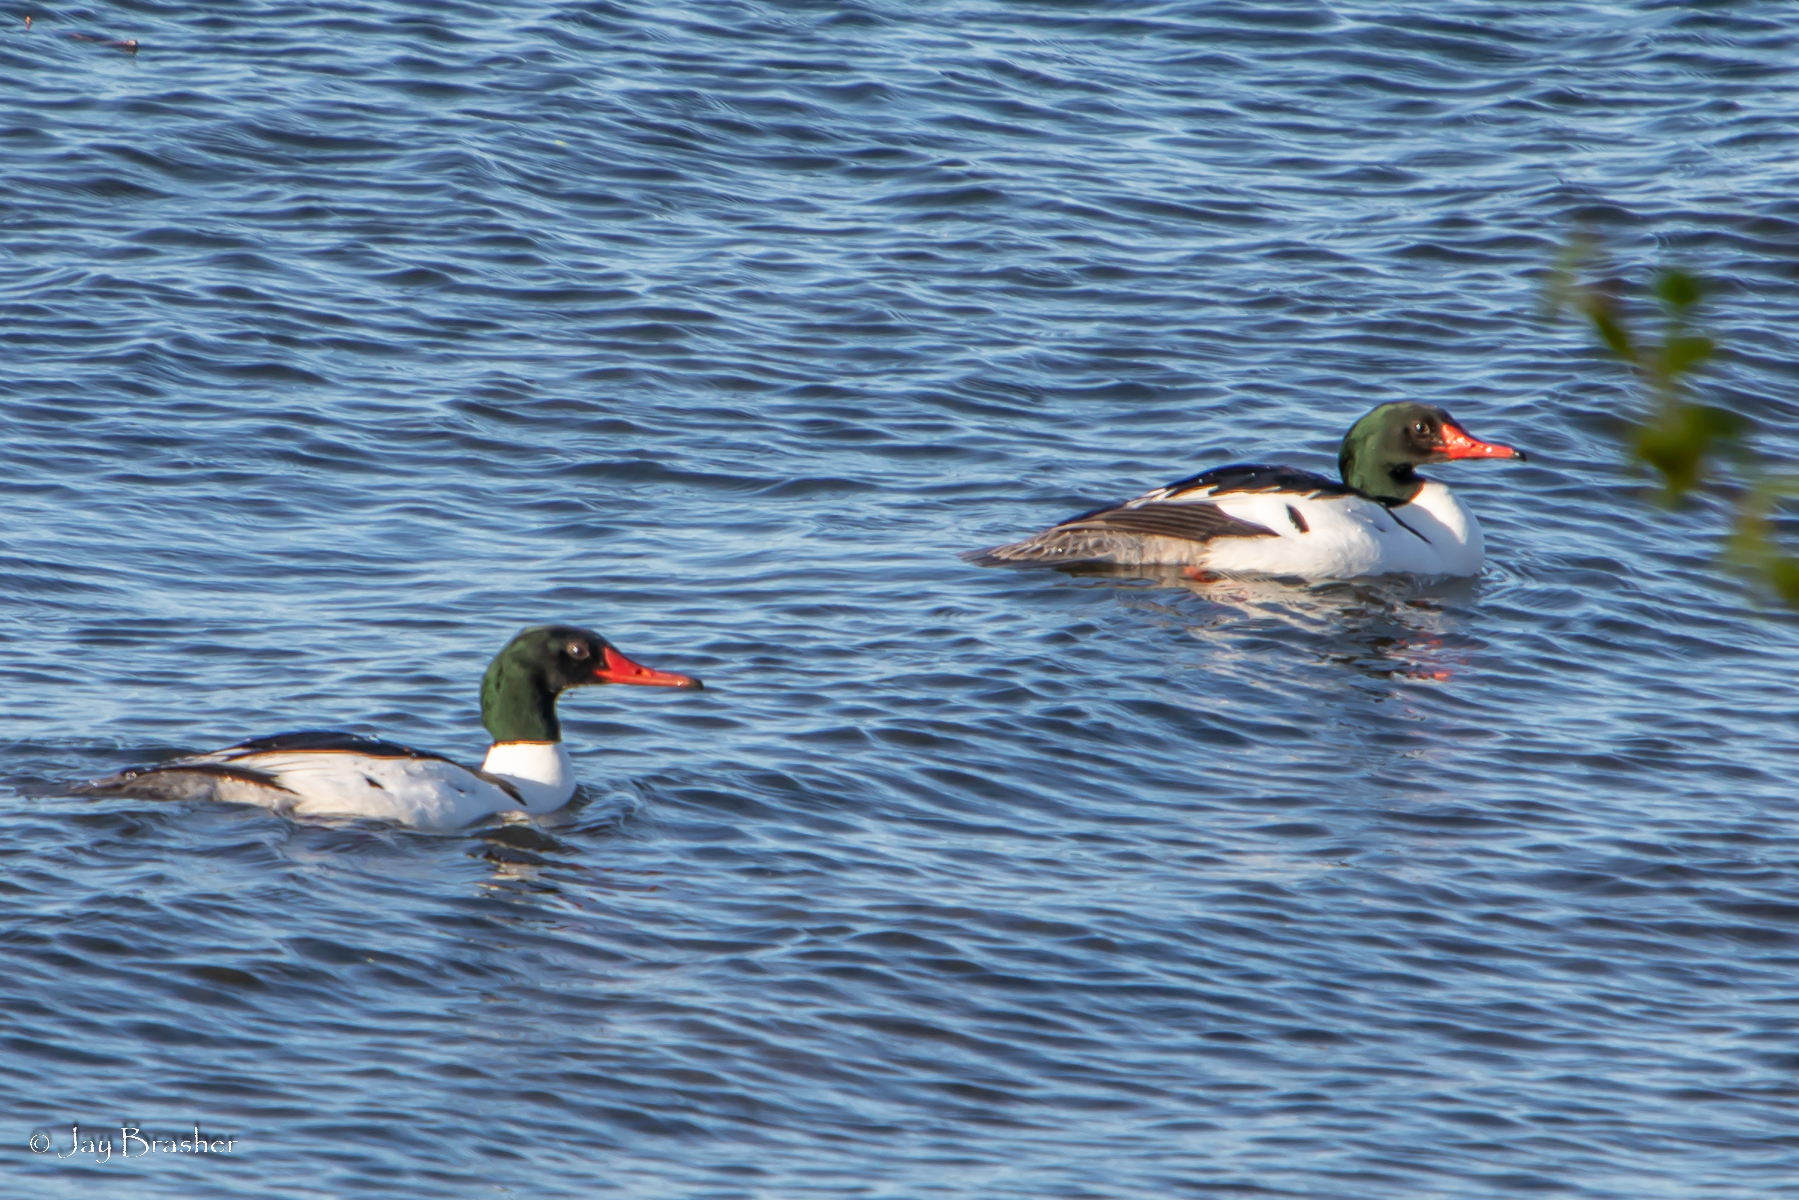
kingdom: Animalia
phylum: Chordata
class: Aves
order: Anseriformes
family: Anatidae
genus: Mergus
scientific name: Mergus merganser
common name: Common merganser
